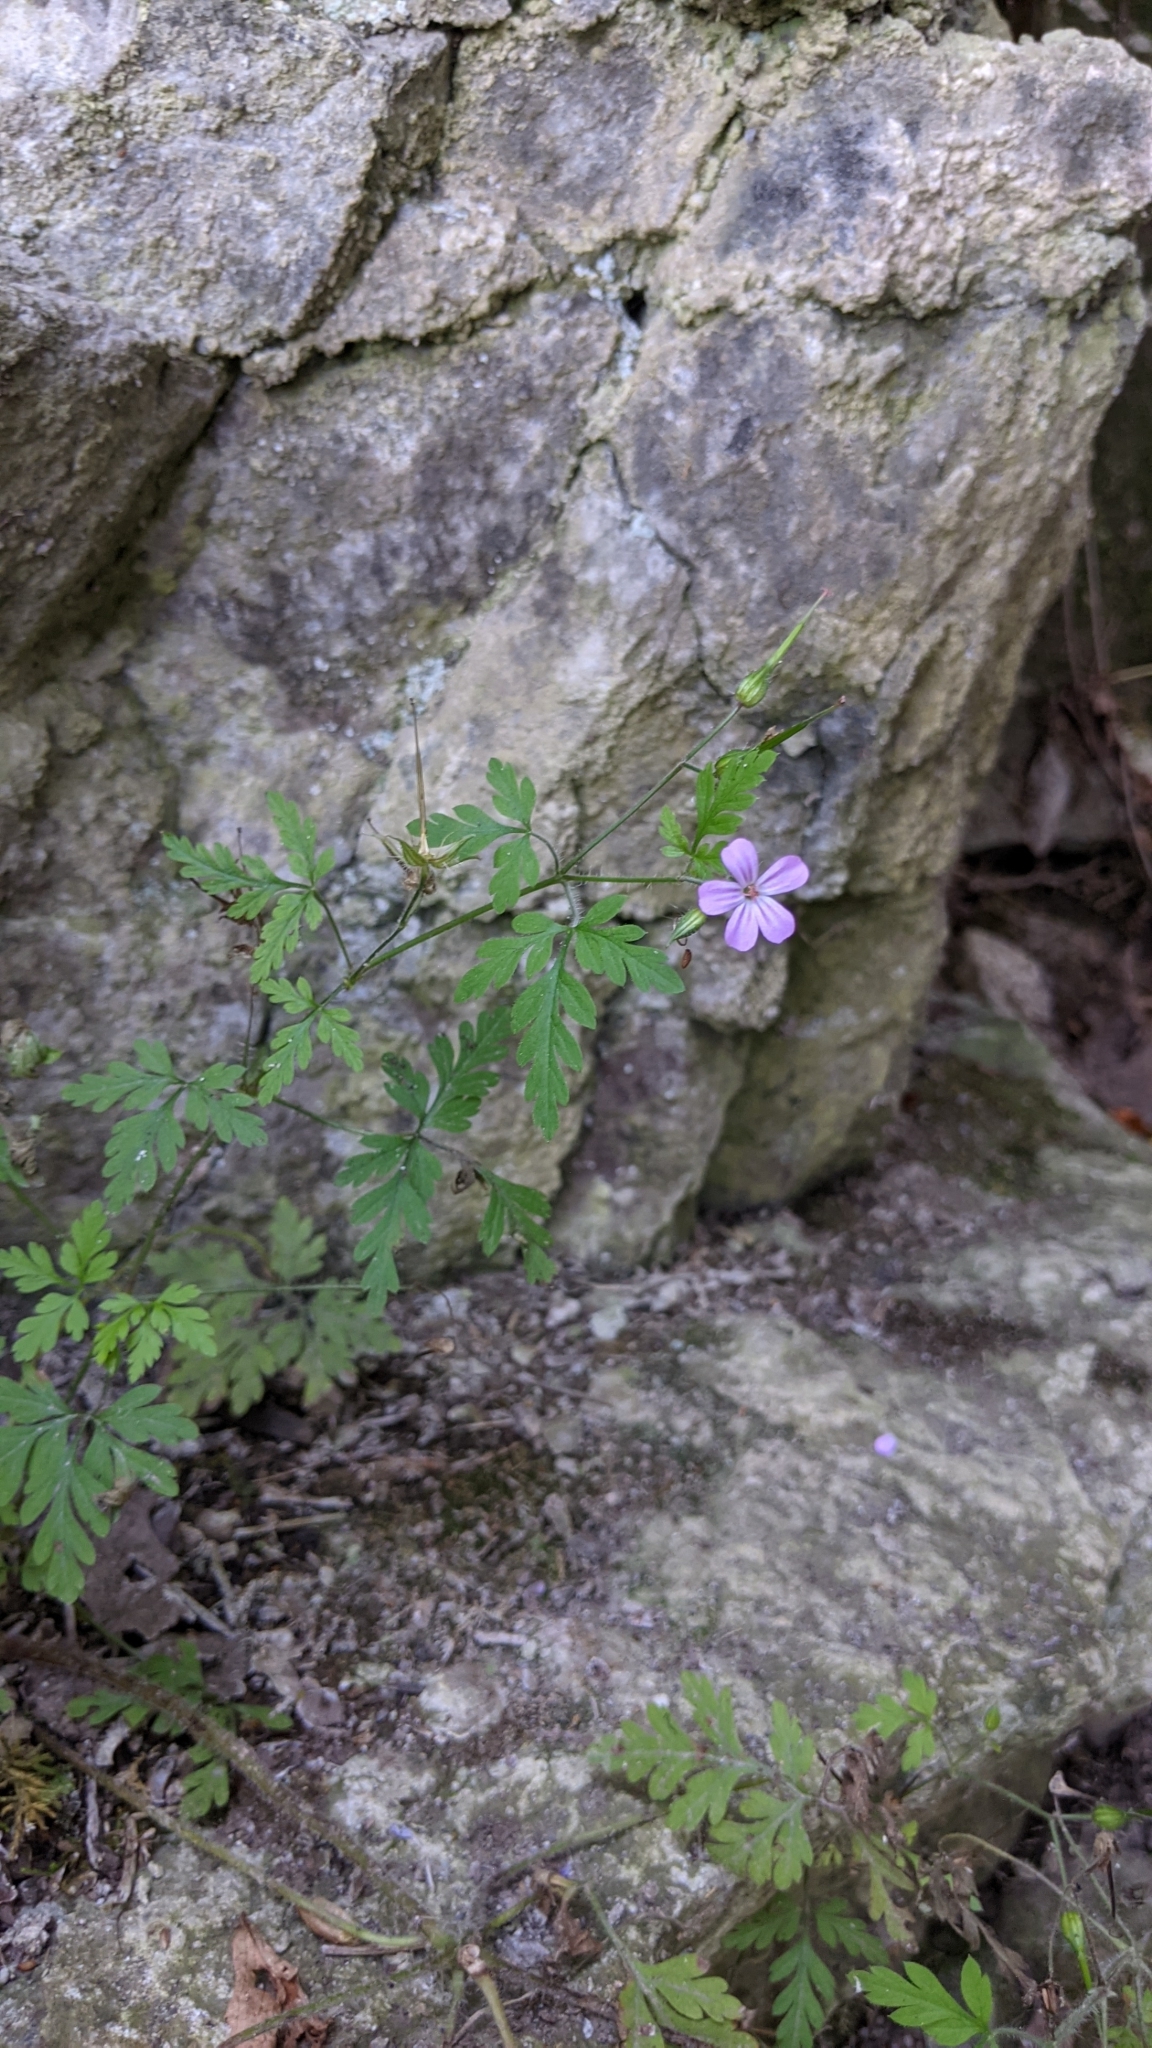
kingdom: Plantae
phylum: Tracheophyta
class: Magnoliopsida
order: Geraniales
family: Geraniaceae
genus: Geranium
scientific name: Geranium robertianum
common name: Herb-robert
